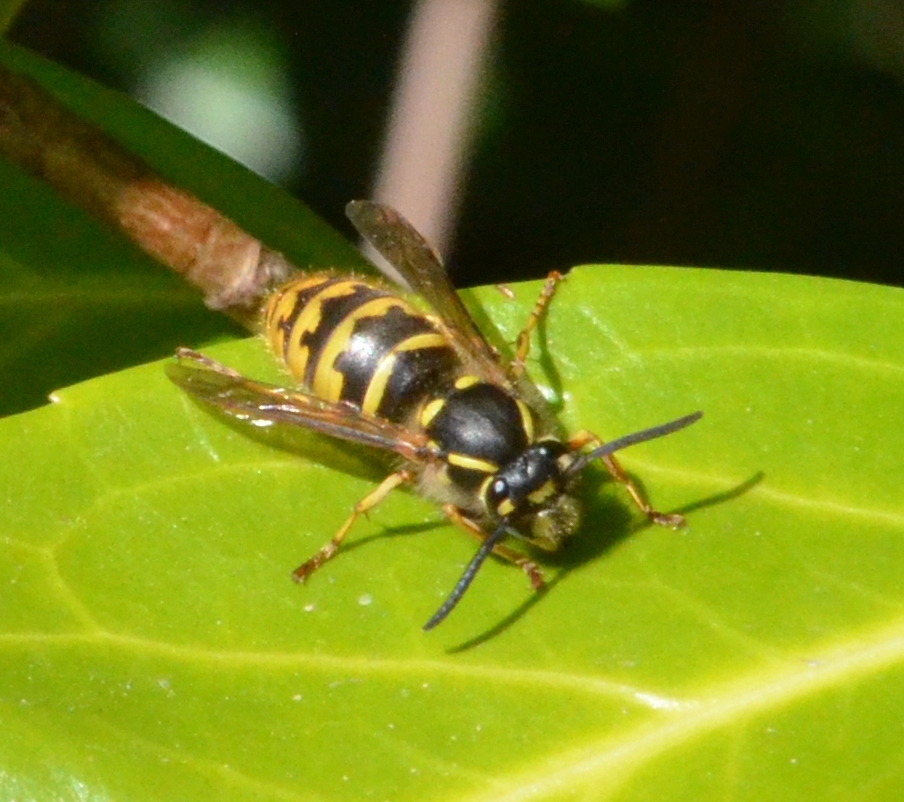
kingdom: Animalia
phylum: Arthropoda
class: Insecta
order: Hymenoptera
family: Vespidae
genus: Vespula
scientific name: Vespula vulgaris
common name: Common wasp
